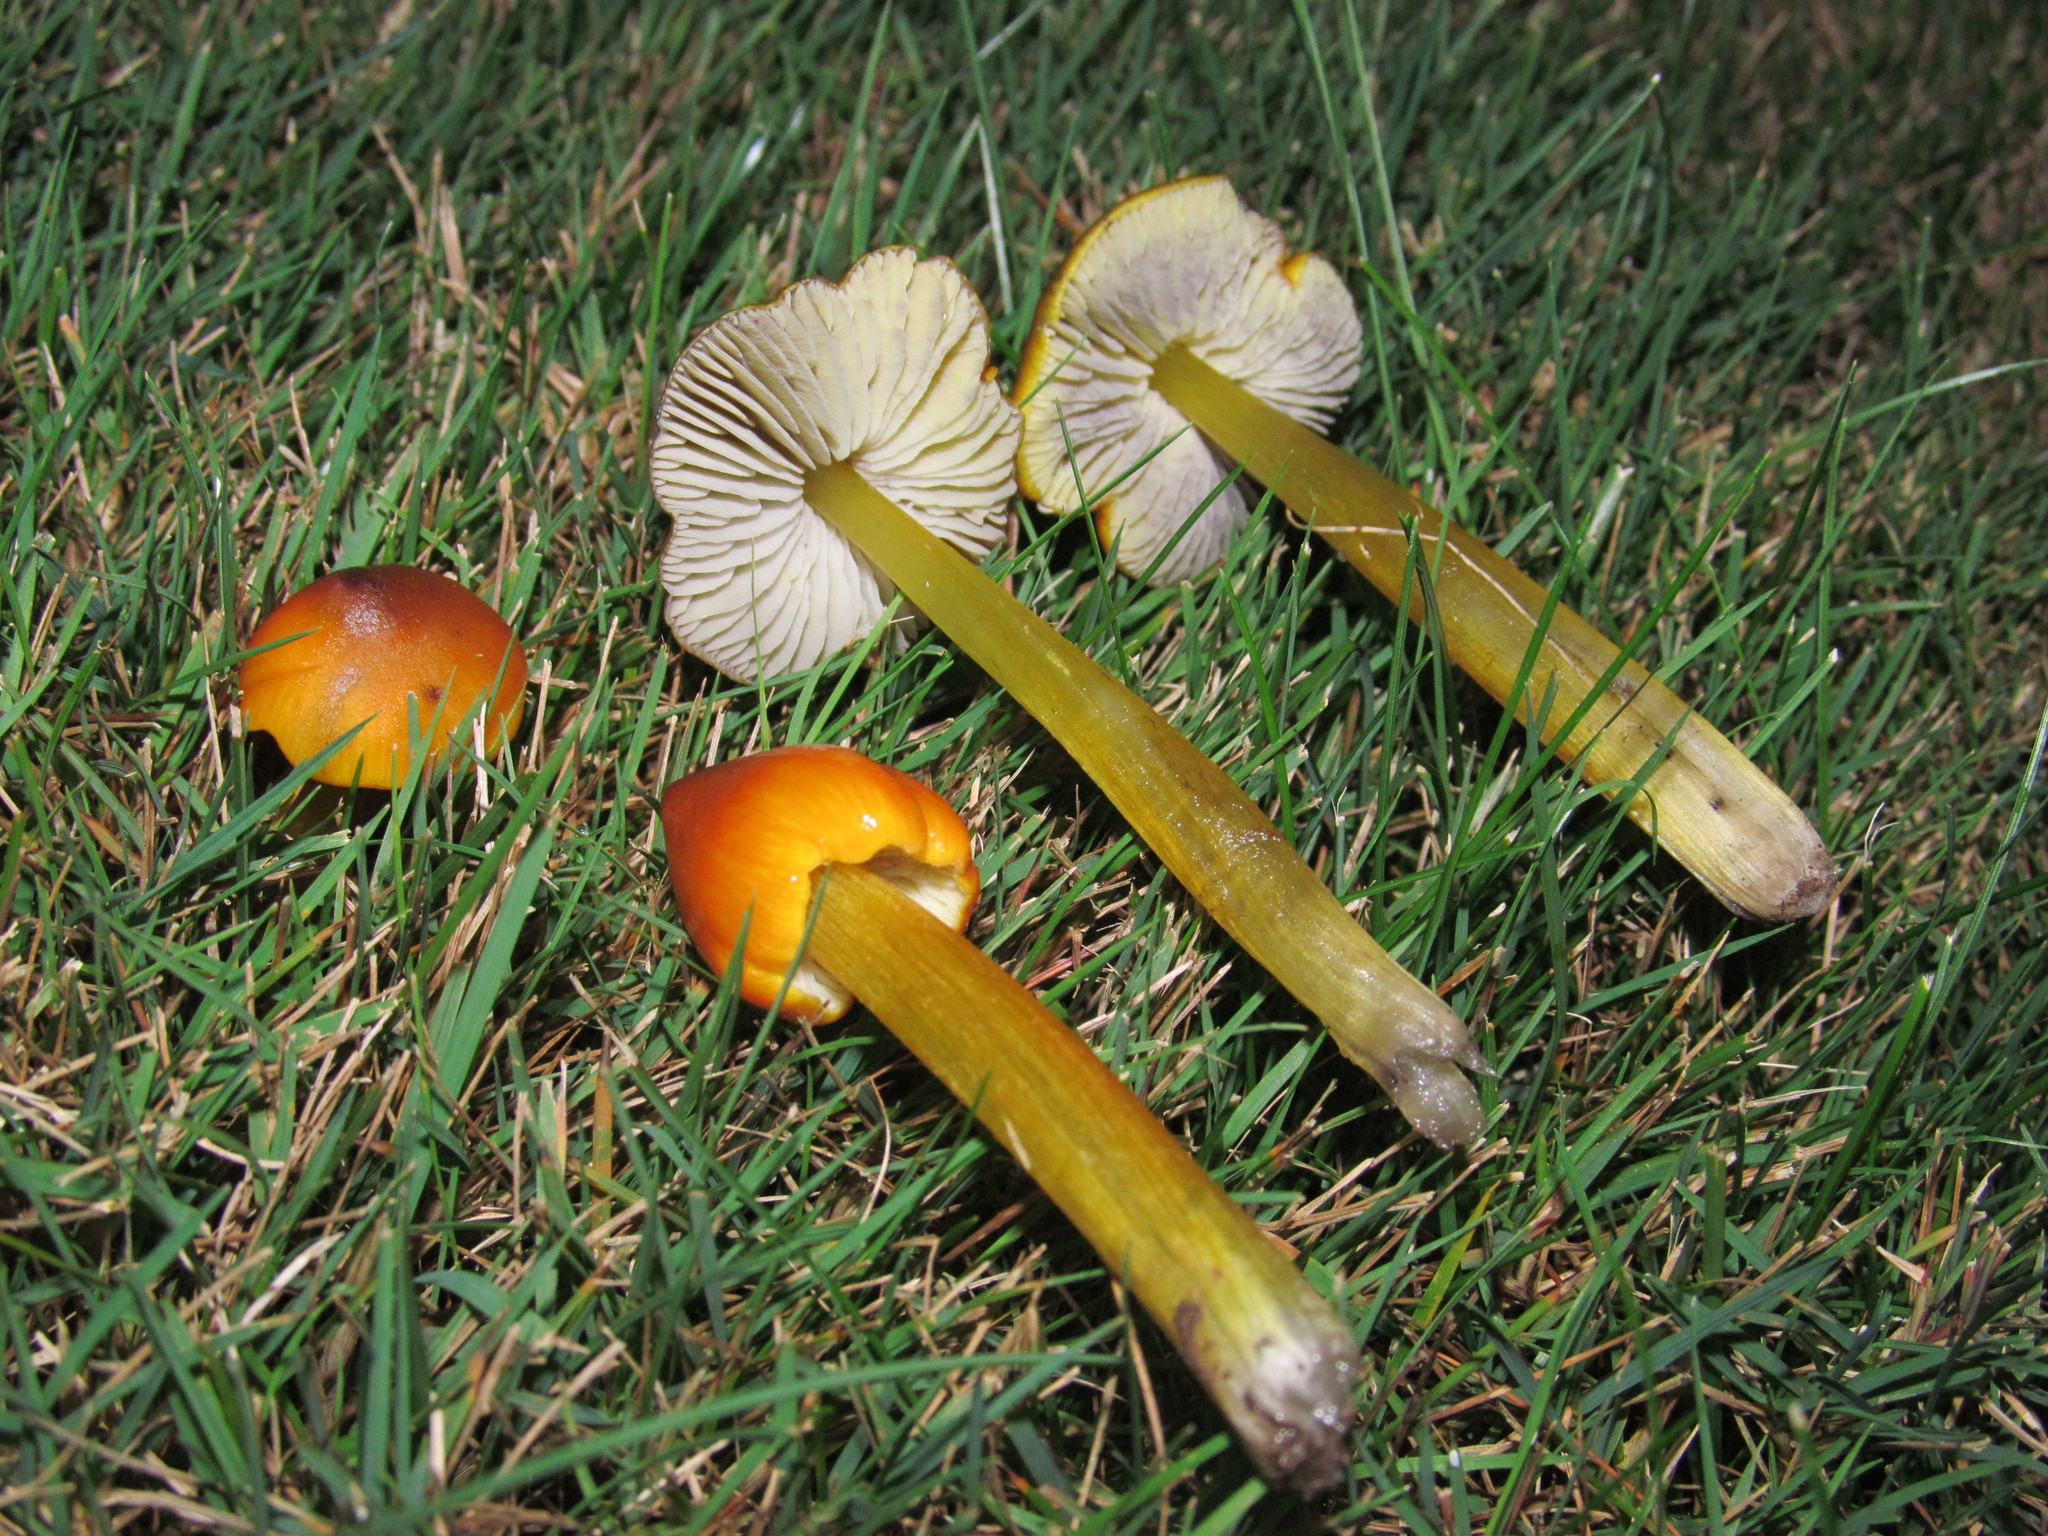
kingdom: Fungi
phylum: Basidiomycota
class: Agaricomycetes
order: Agaricales
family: Hygrophoraceae
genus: Hygrocybe
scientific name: Hygrocybe singeri
